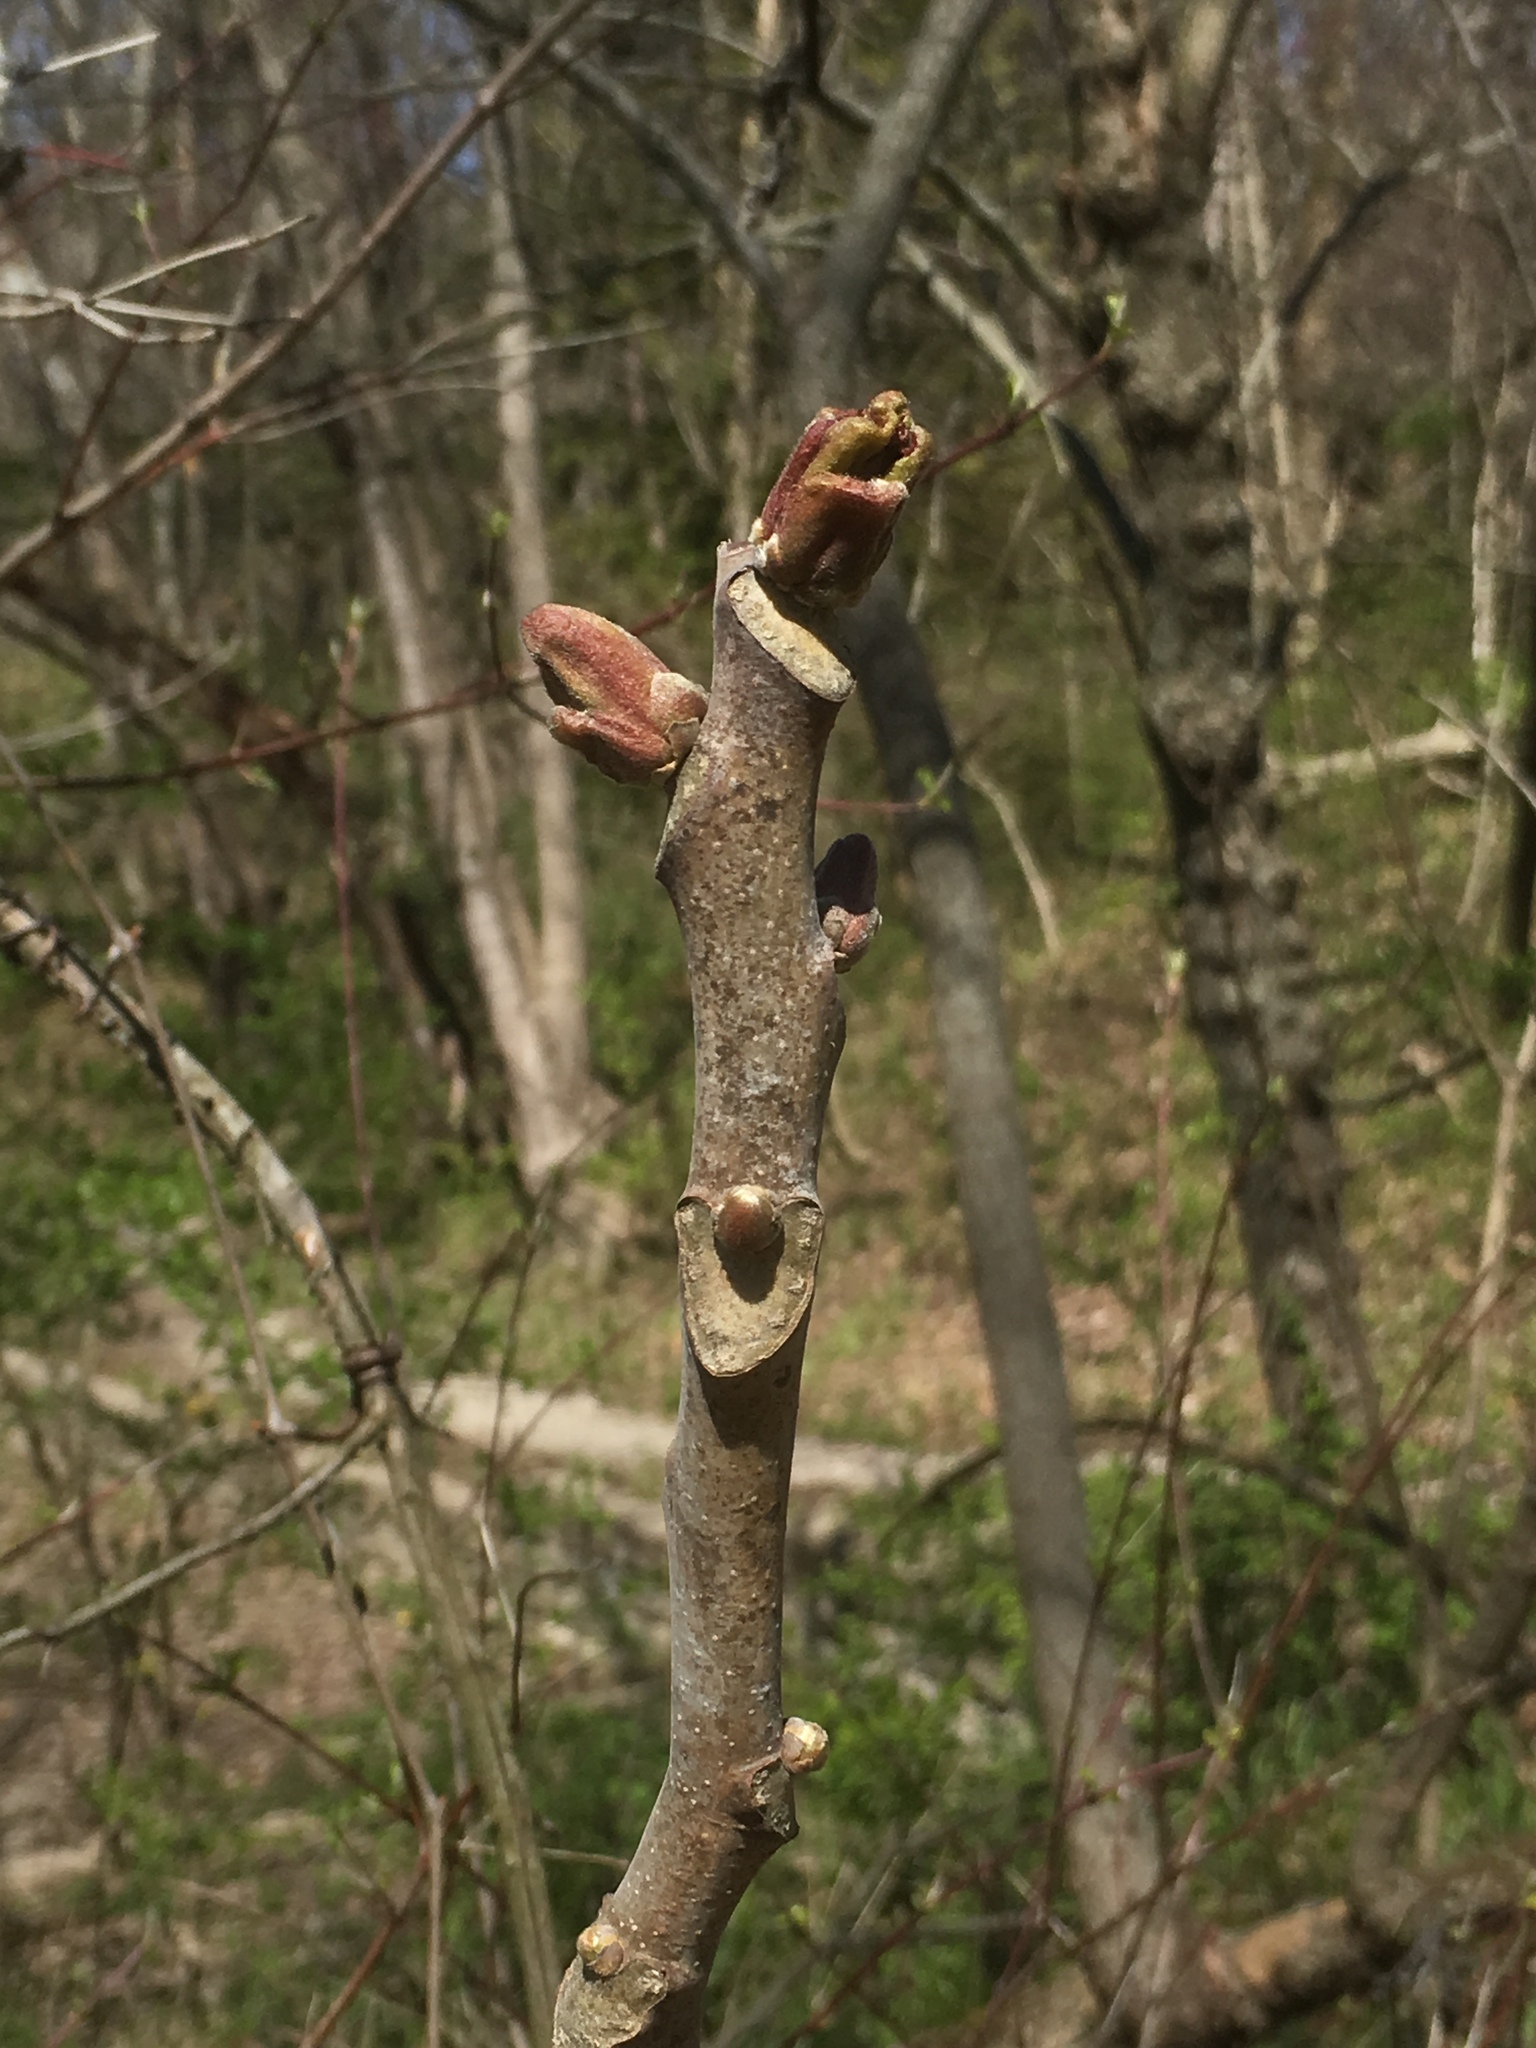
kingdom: Plantae
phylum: Tracheophyta
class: Magnoliopsida
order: Sapindales
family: Simaroubaceae
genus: Ailanthus
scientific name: Ailanthus altissima
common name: Tree-of-heaven
